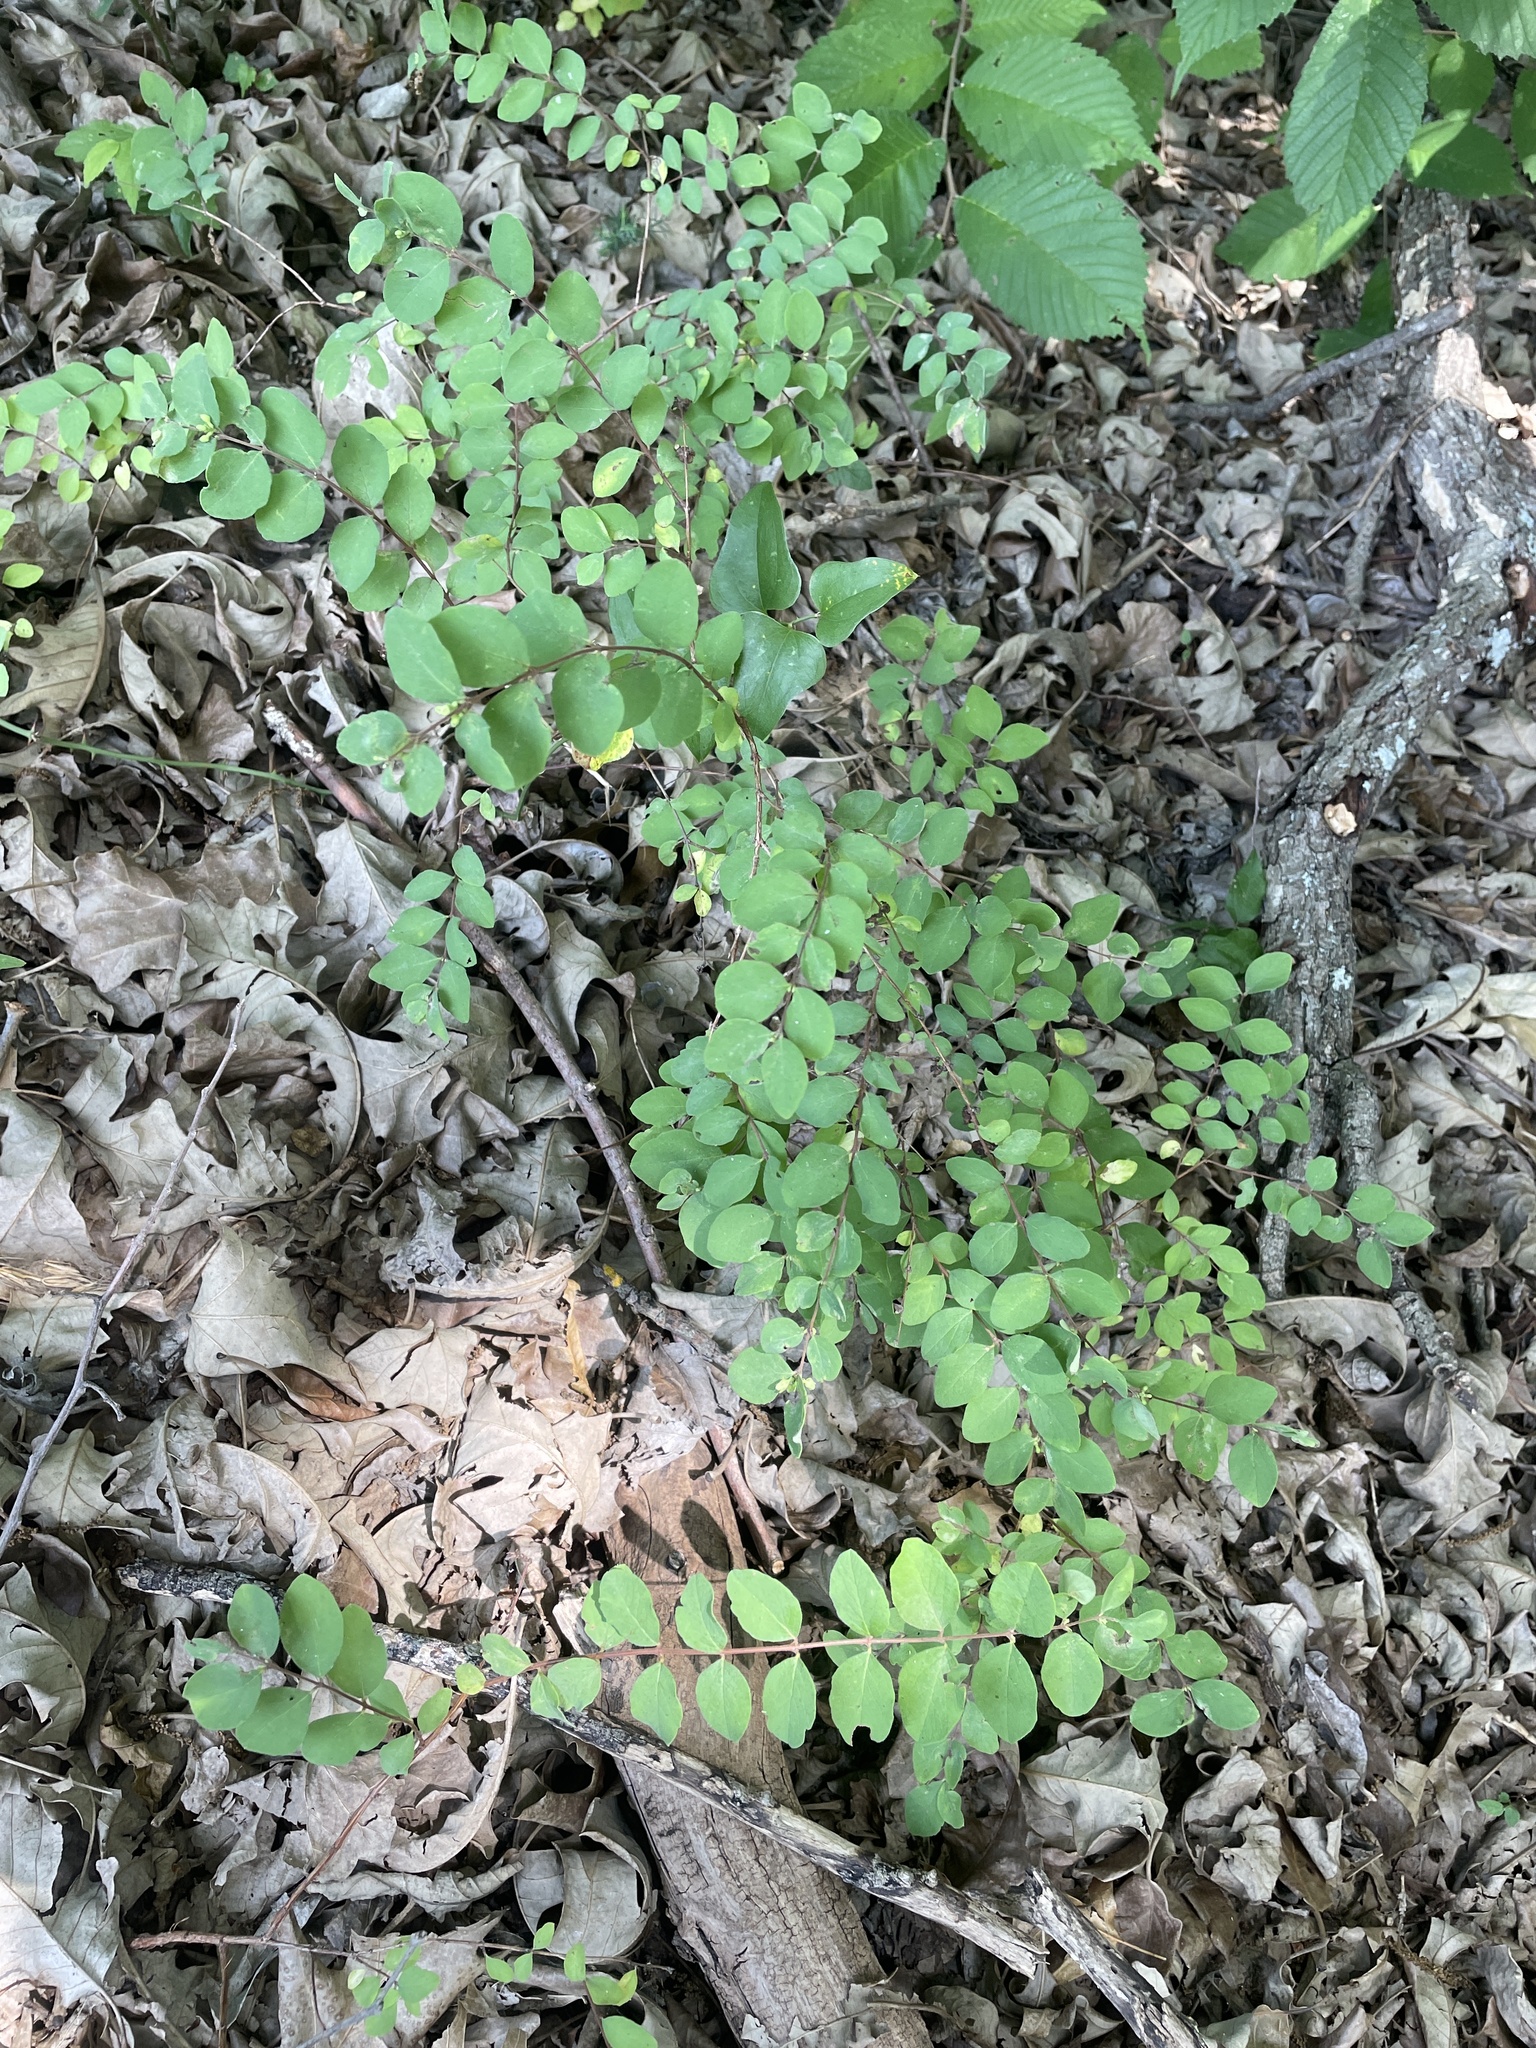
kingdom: Plantae
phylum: Tracheophyta
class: Magnoliopsida
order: Dipsacales
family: Caprifoliaceae
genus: Symphoricarpos
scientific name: Symphoricarpos orbiculatus
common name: Coralberry
